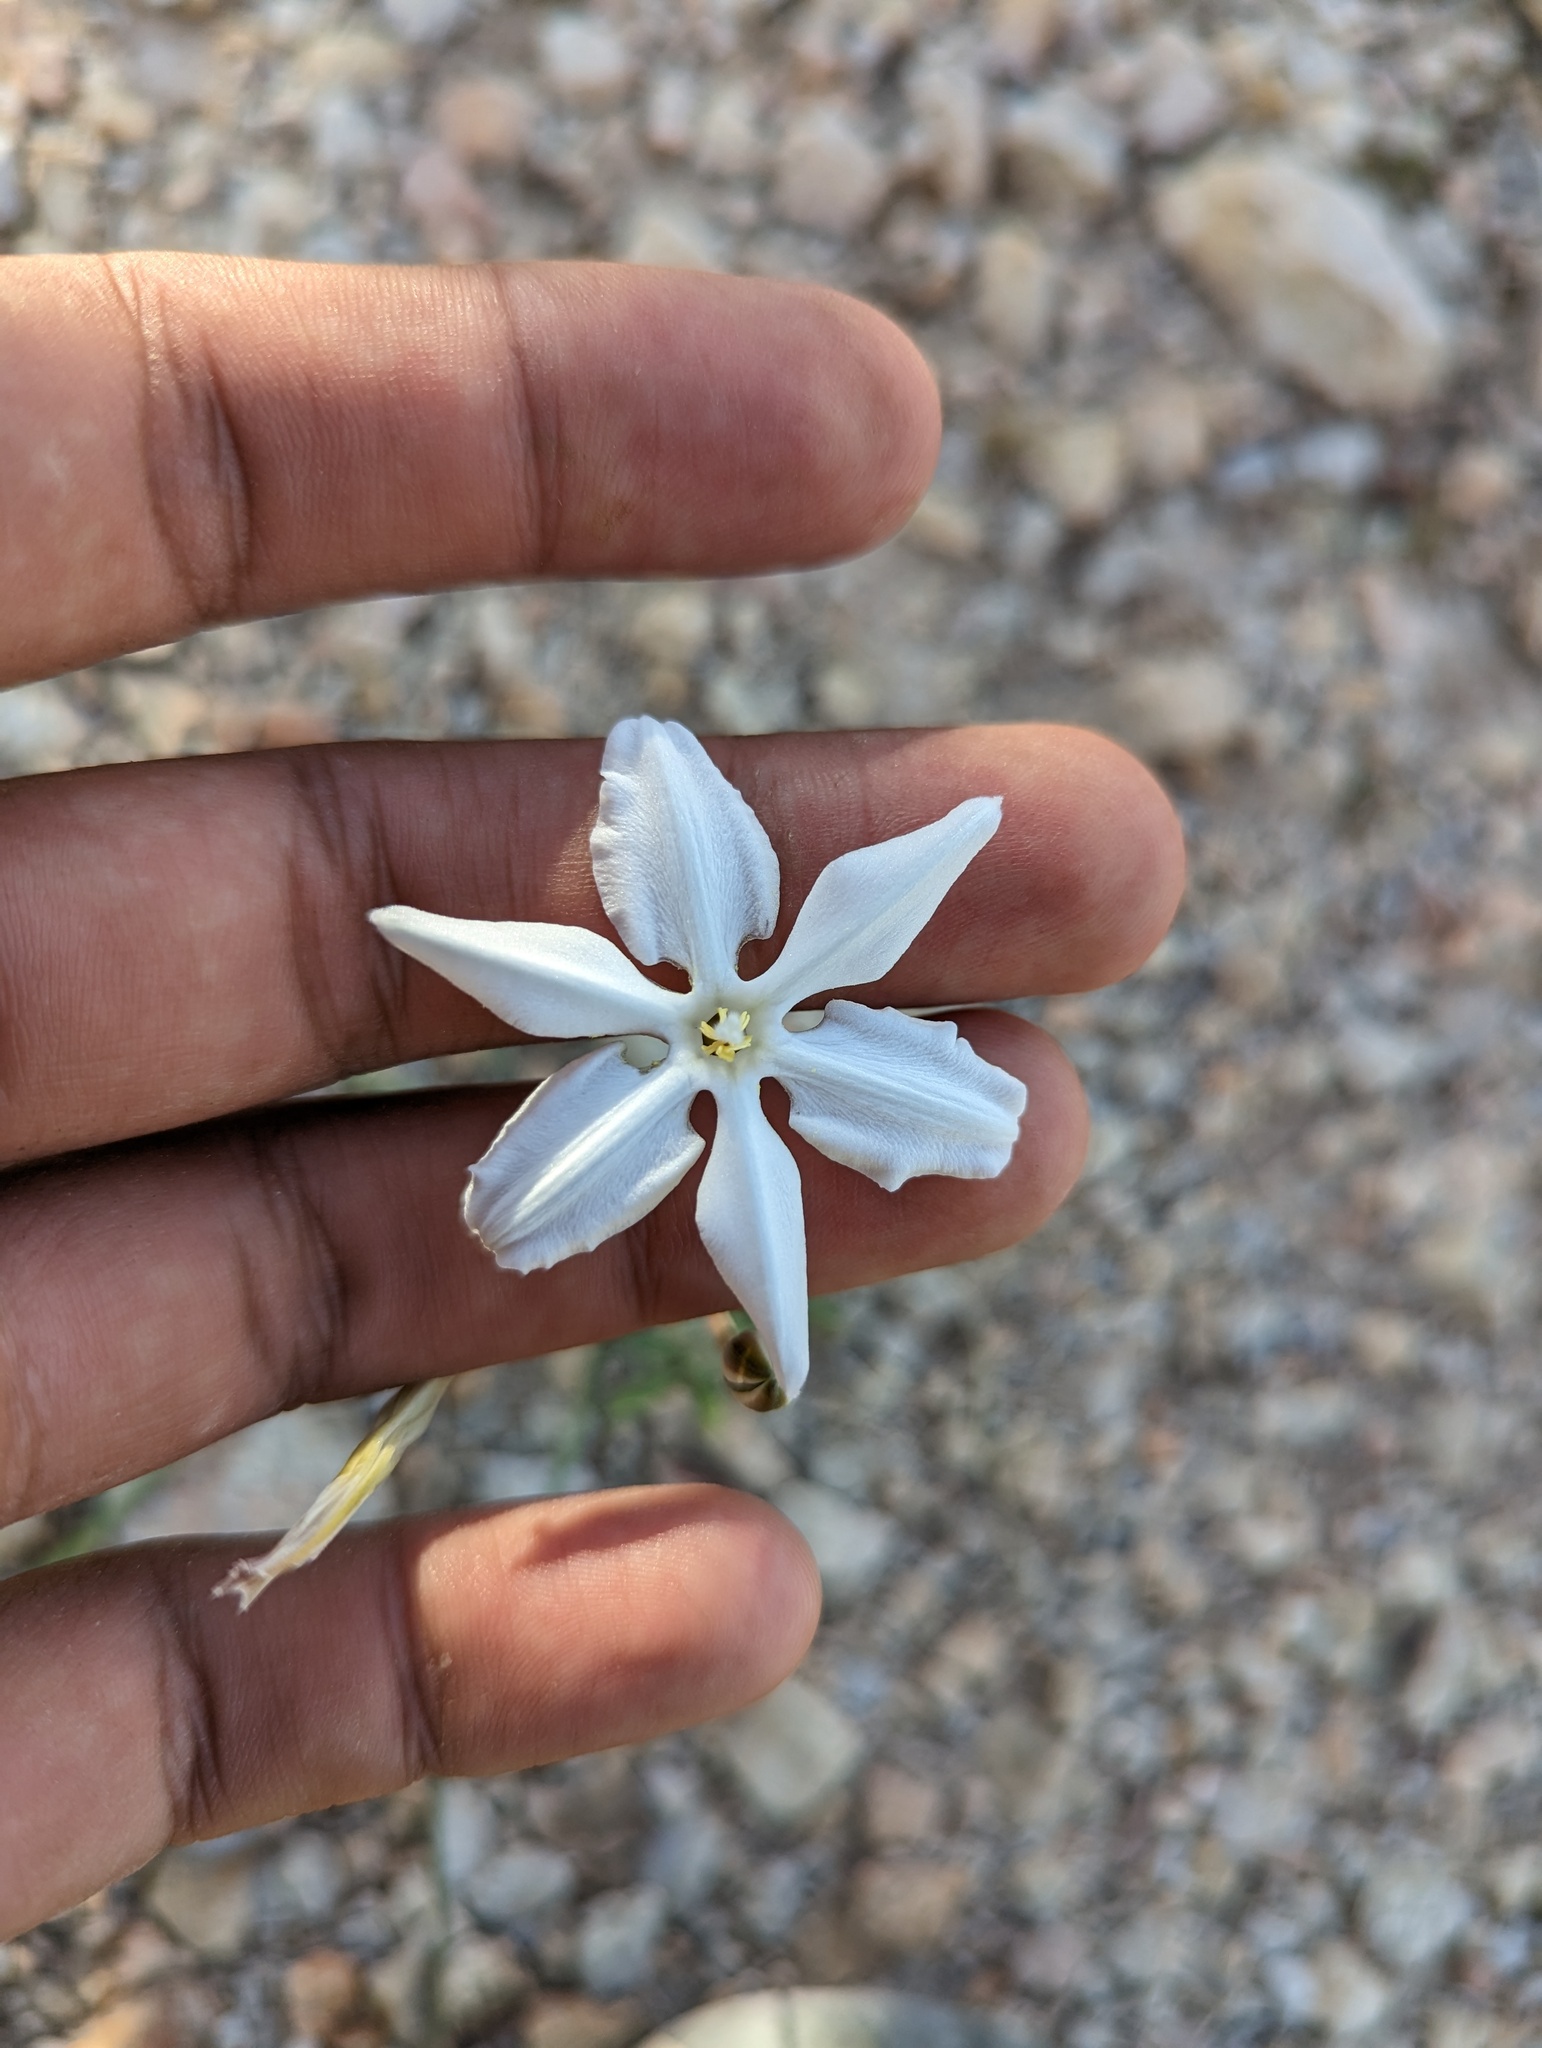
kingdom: Plantae
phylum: Tracheophyta
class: Liliopsida
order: Asparagales
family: Asparagaceae
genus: Milla
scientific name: Milla
